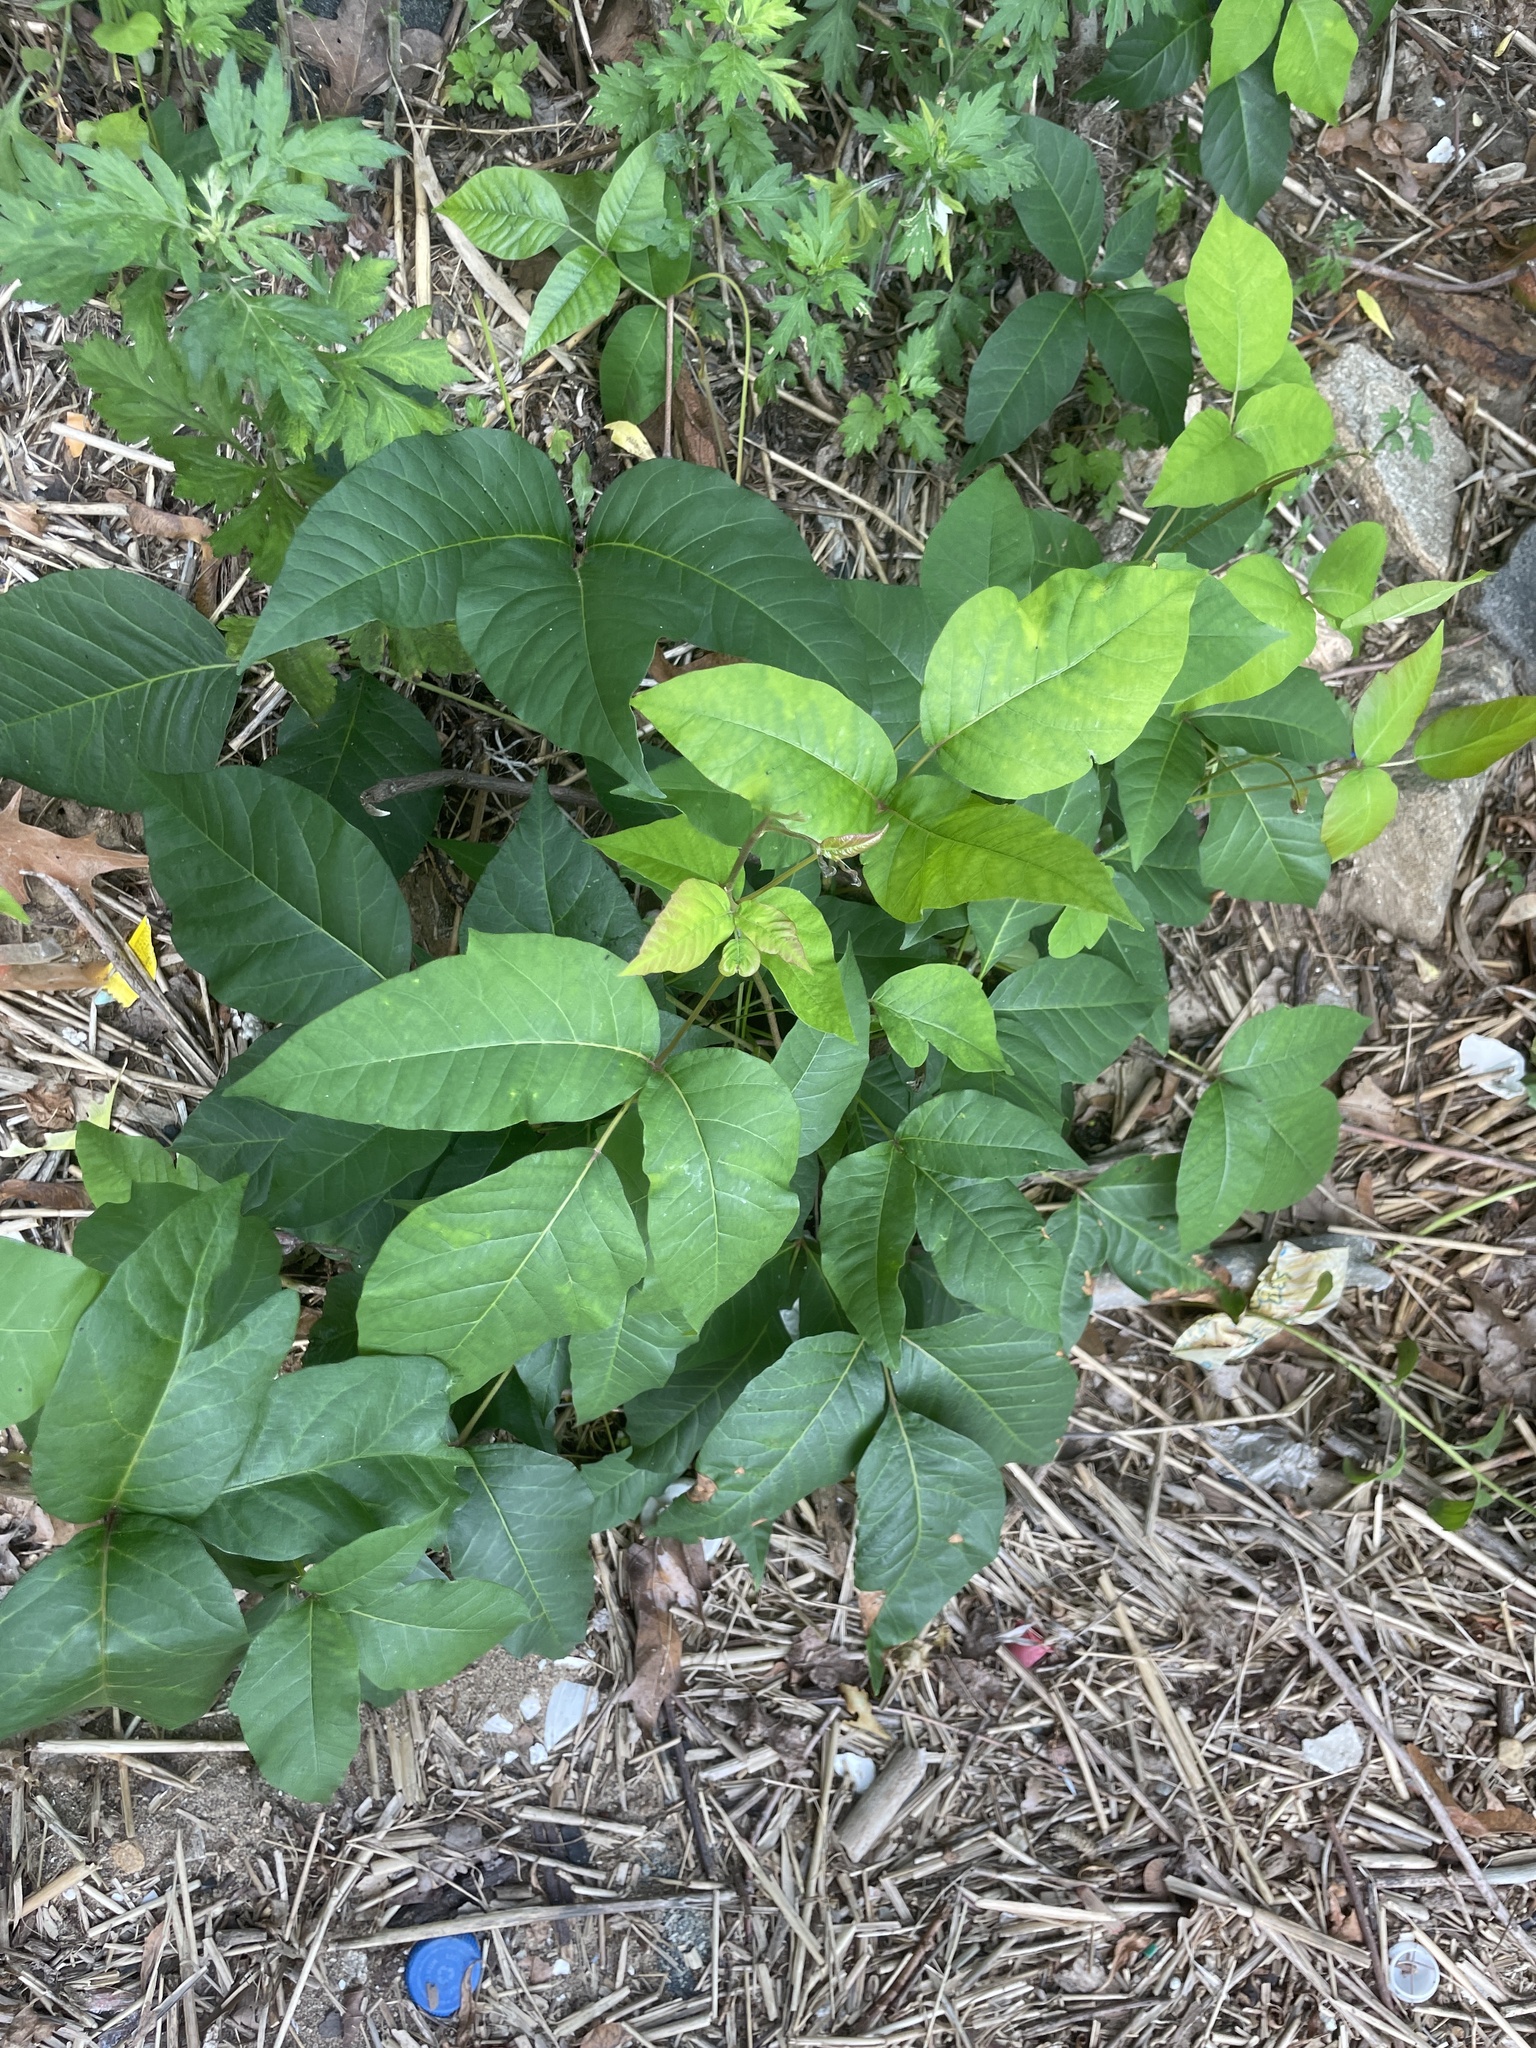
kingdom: Plantae
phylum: Tracheophyta
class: Magnoliopsida
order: Sapindales
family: Anacardiaceae
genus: Toxicodendron
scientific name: Toxicodendron radicans
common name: Poison ivy
